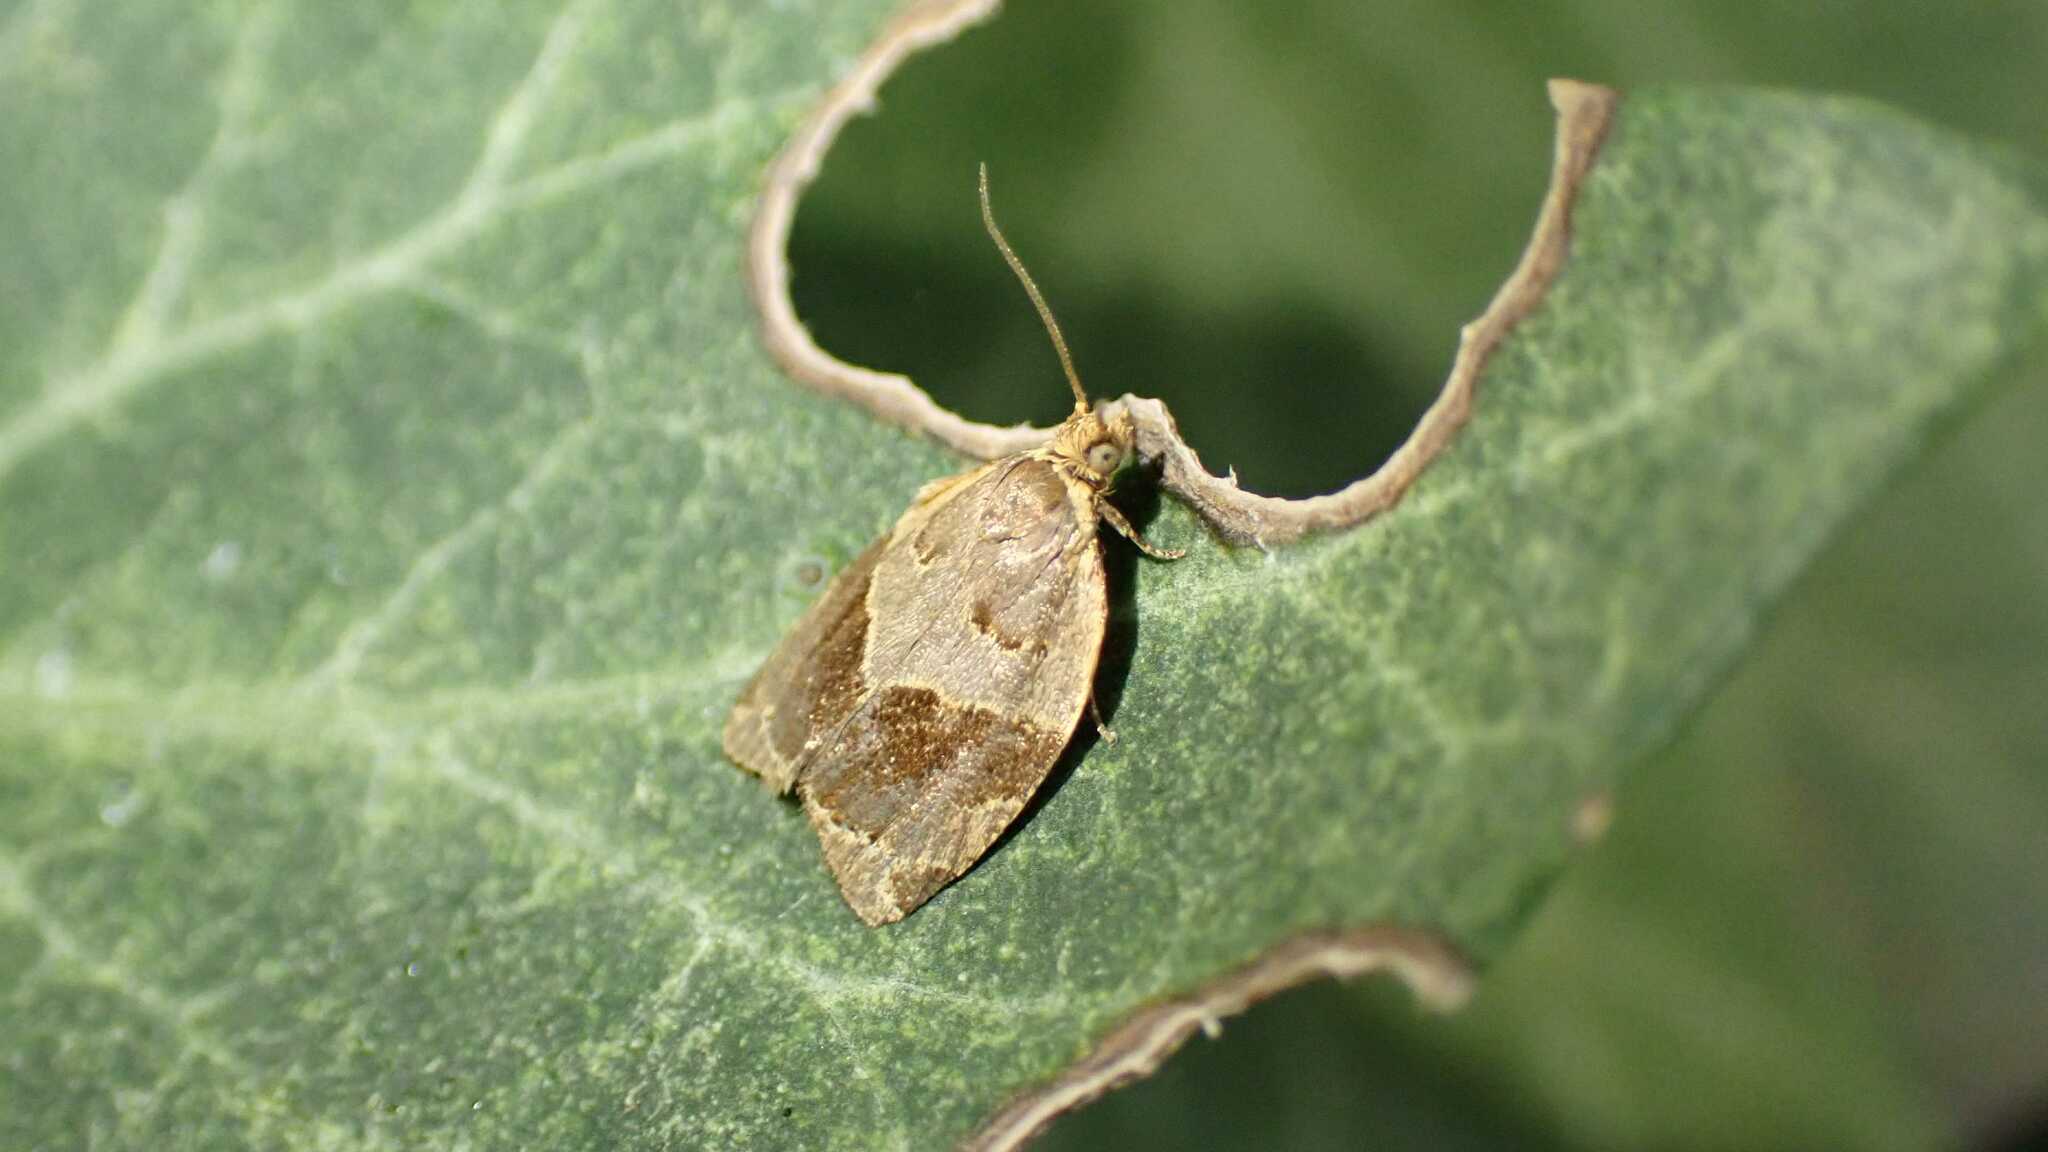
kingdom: Animalia
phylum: Arthropoda
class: Insecta
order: Lepidoptera
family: Tortricidae
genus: Clepsis
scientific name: Clepsis dumicolana
